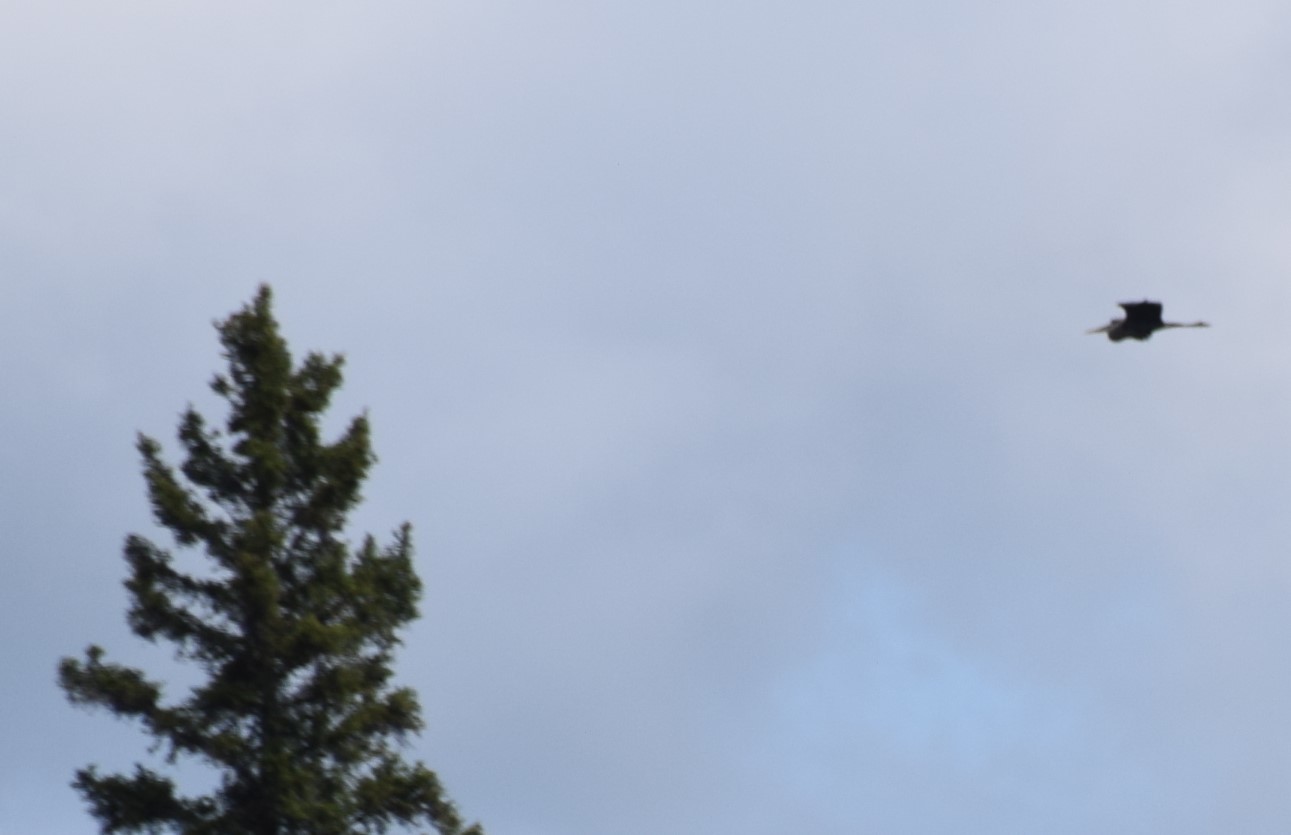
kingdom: Animalia
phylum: Chordata
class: Aves
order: Pelecaniformes
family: Ardeidae
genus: Ardea
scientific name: Ardea herodias
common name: Great blue heron
